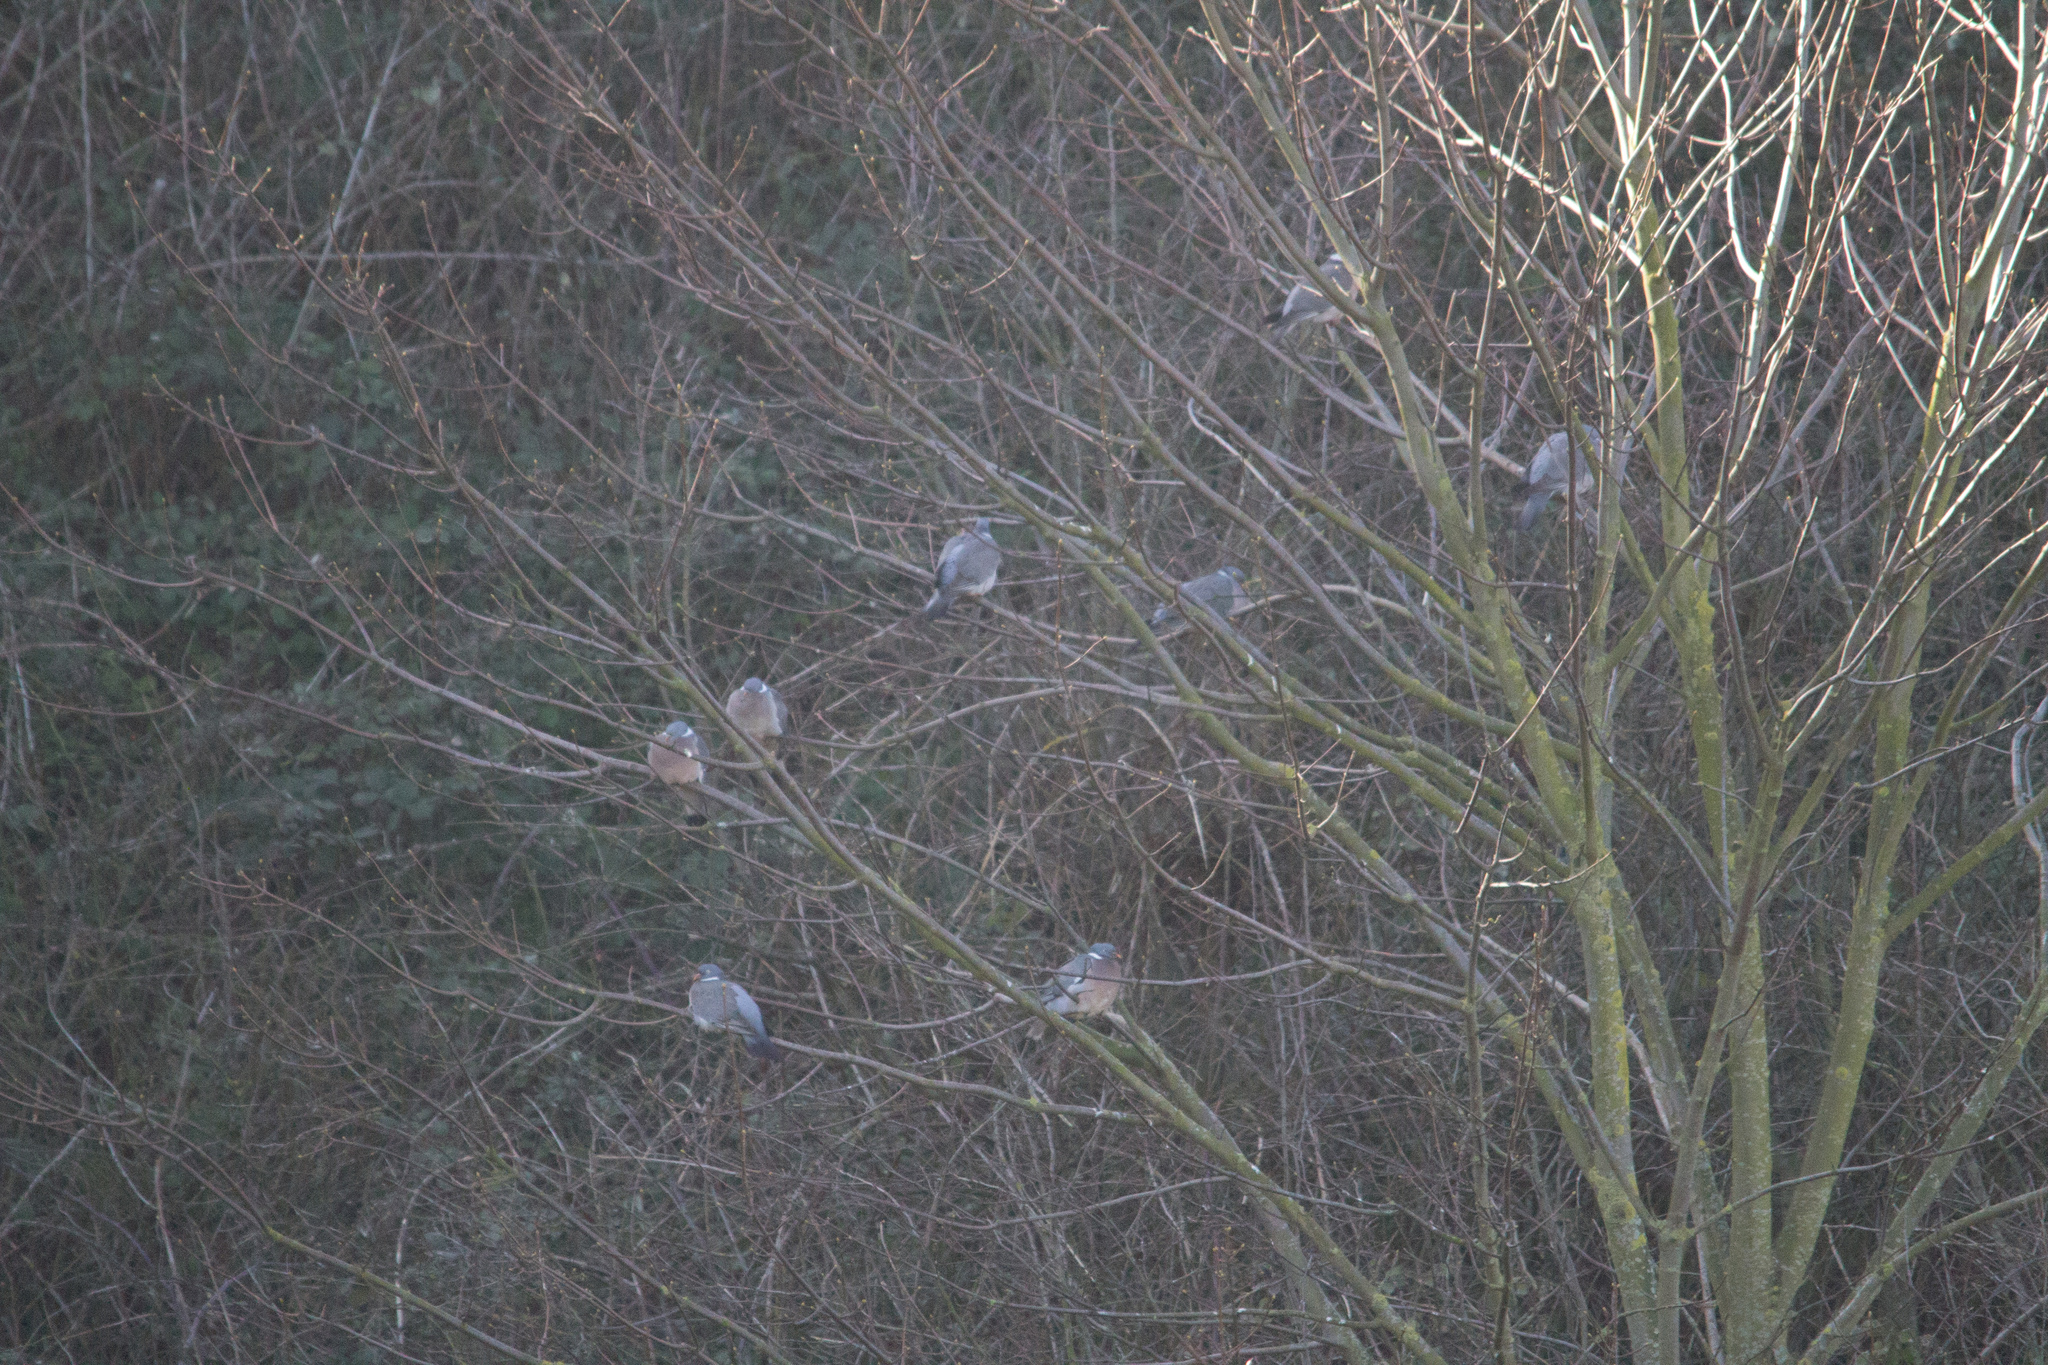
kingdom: Animalia
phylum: Chordata
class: Aves
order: Columbiformes
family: Columbidae
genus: Columba
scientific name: Columba palumbus
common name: Common wood pigeon
